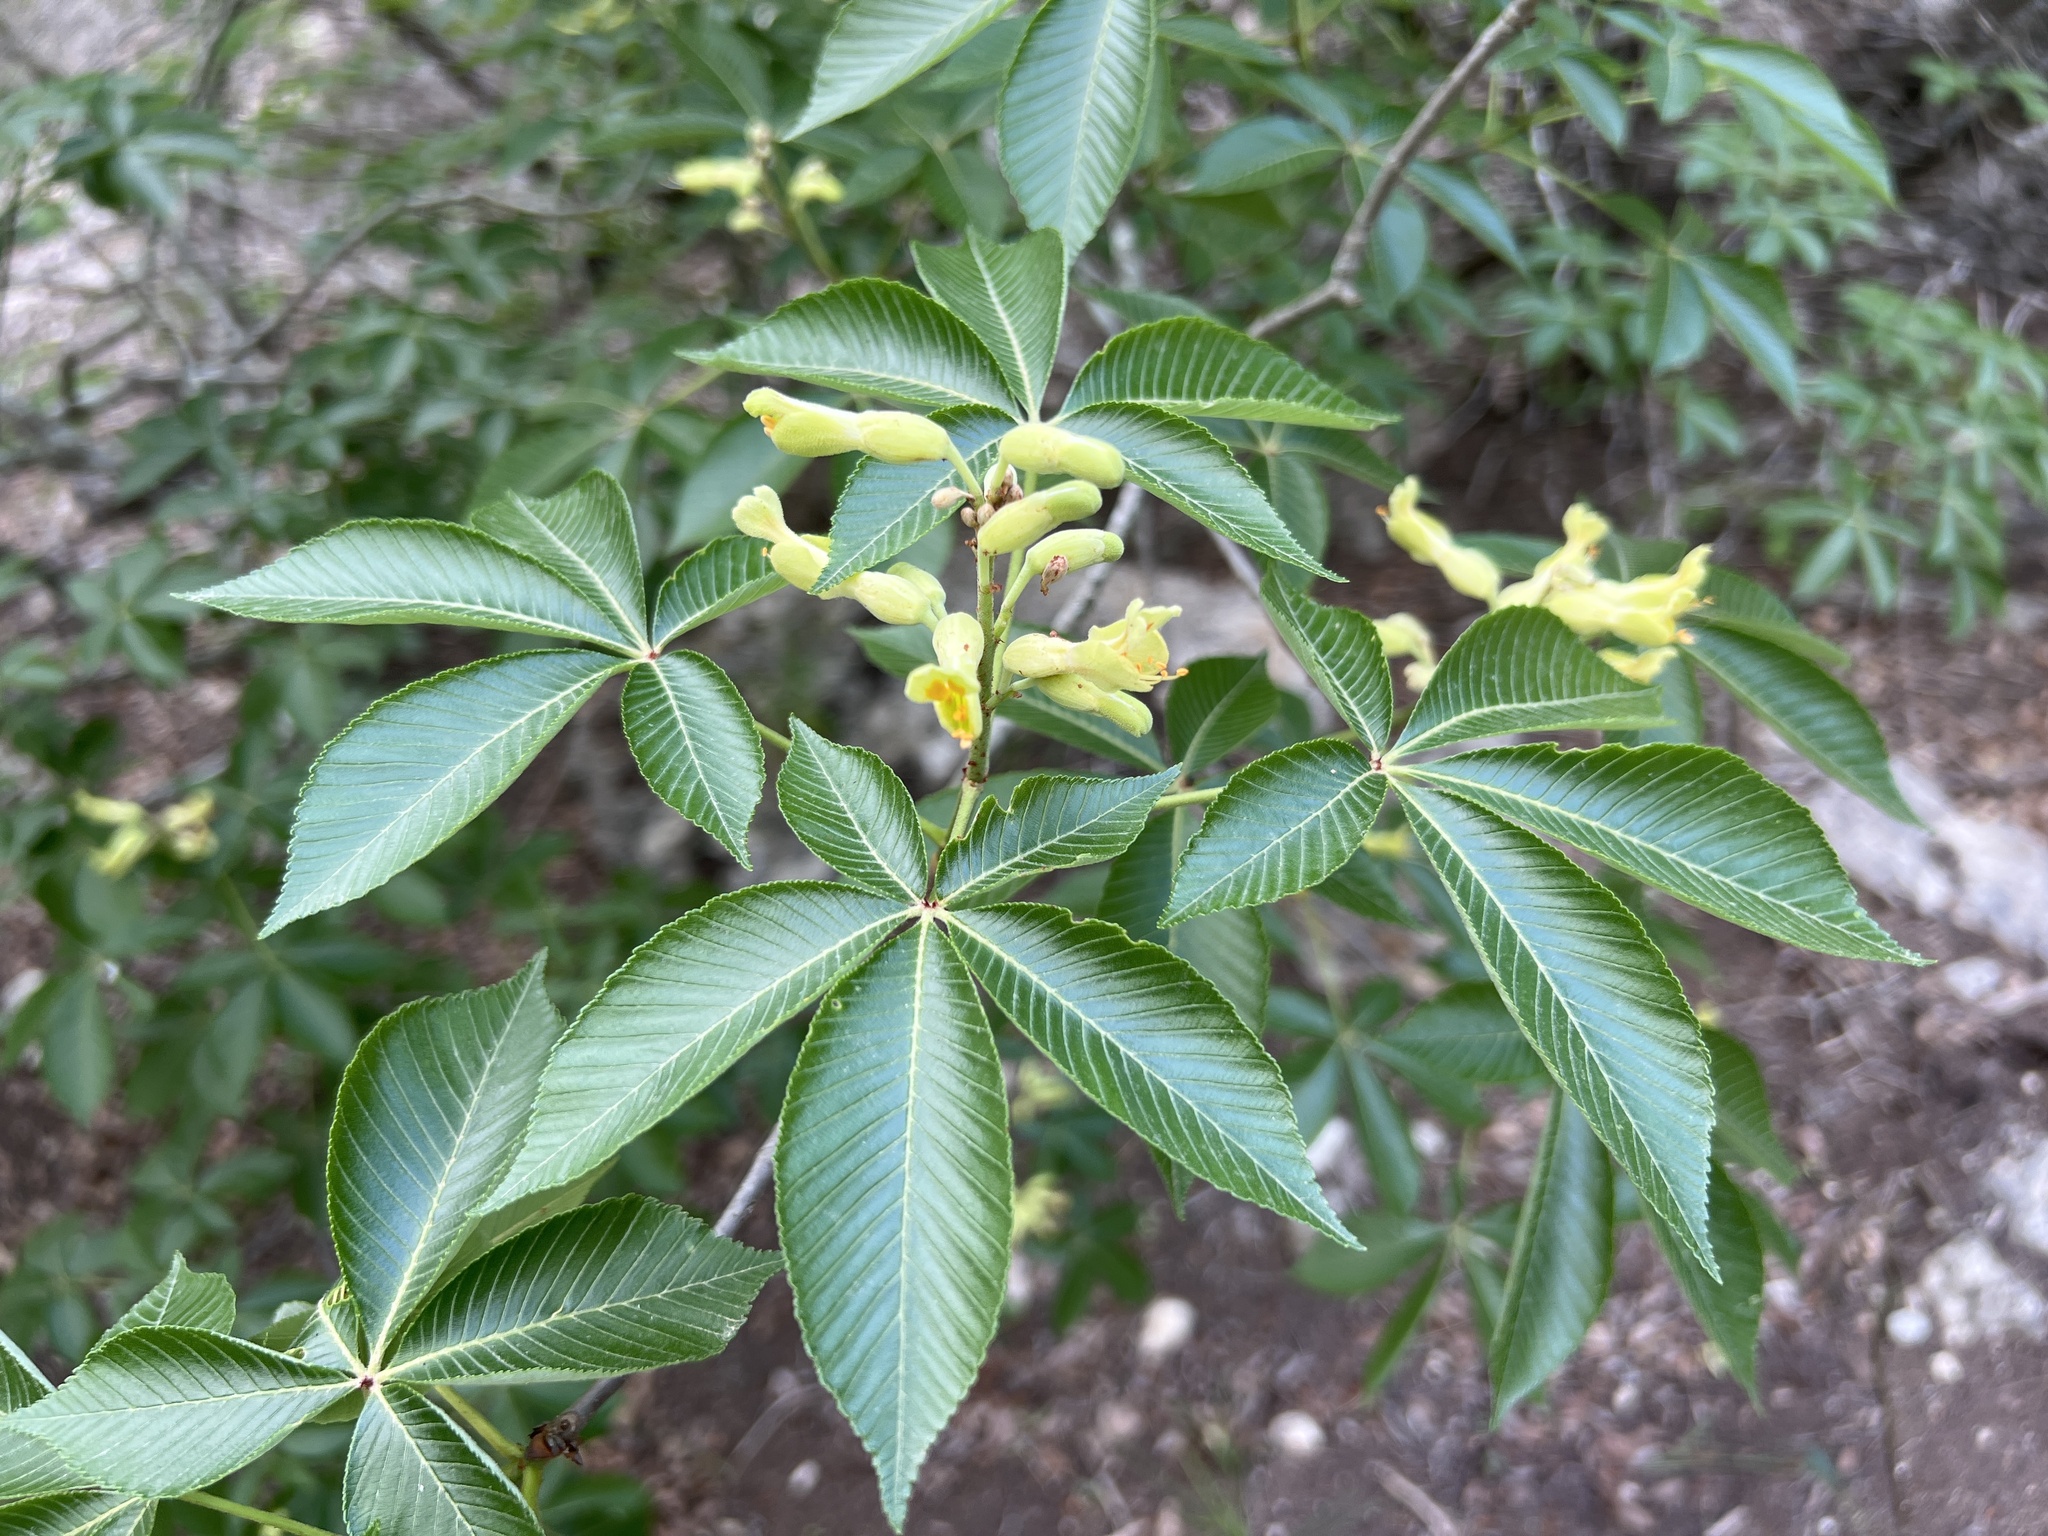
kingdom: Plantae
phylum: Tracheophyta
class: Magnoliopsida
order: Sapindales
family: Sapindaceae
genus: Aesculus
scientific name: Aesculus pavia
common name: Red buckeye
